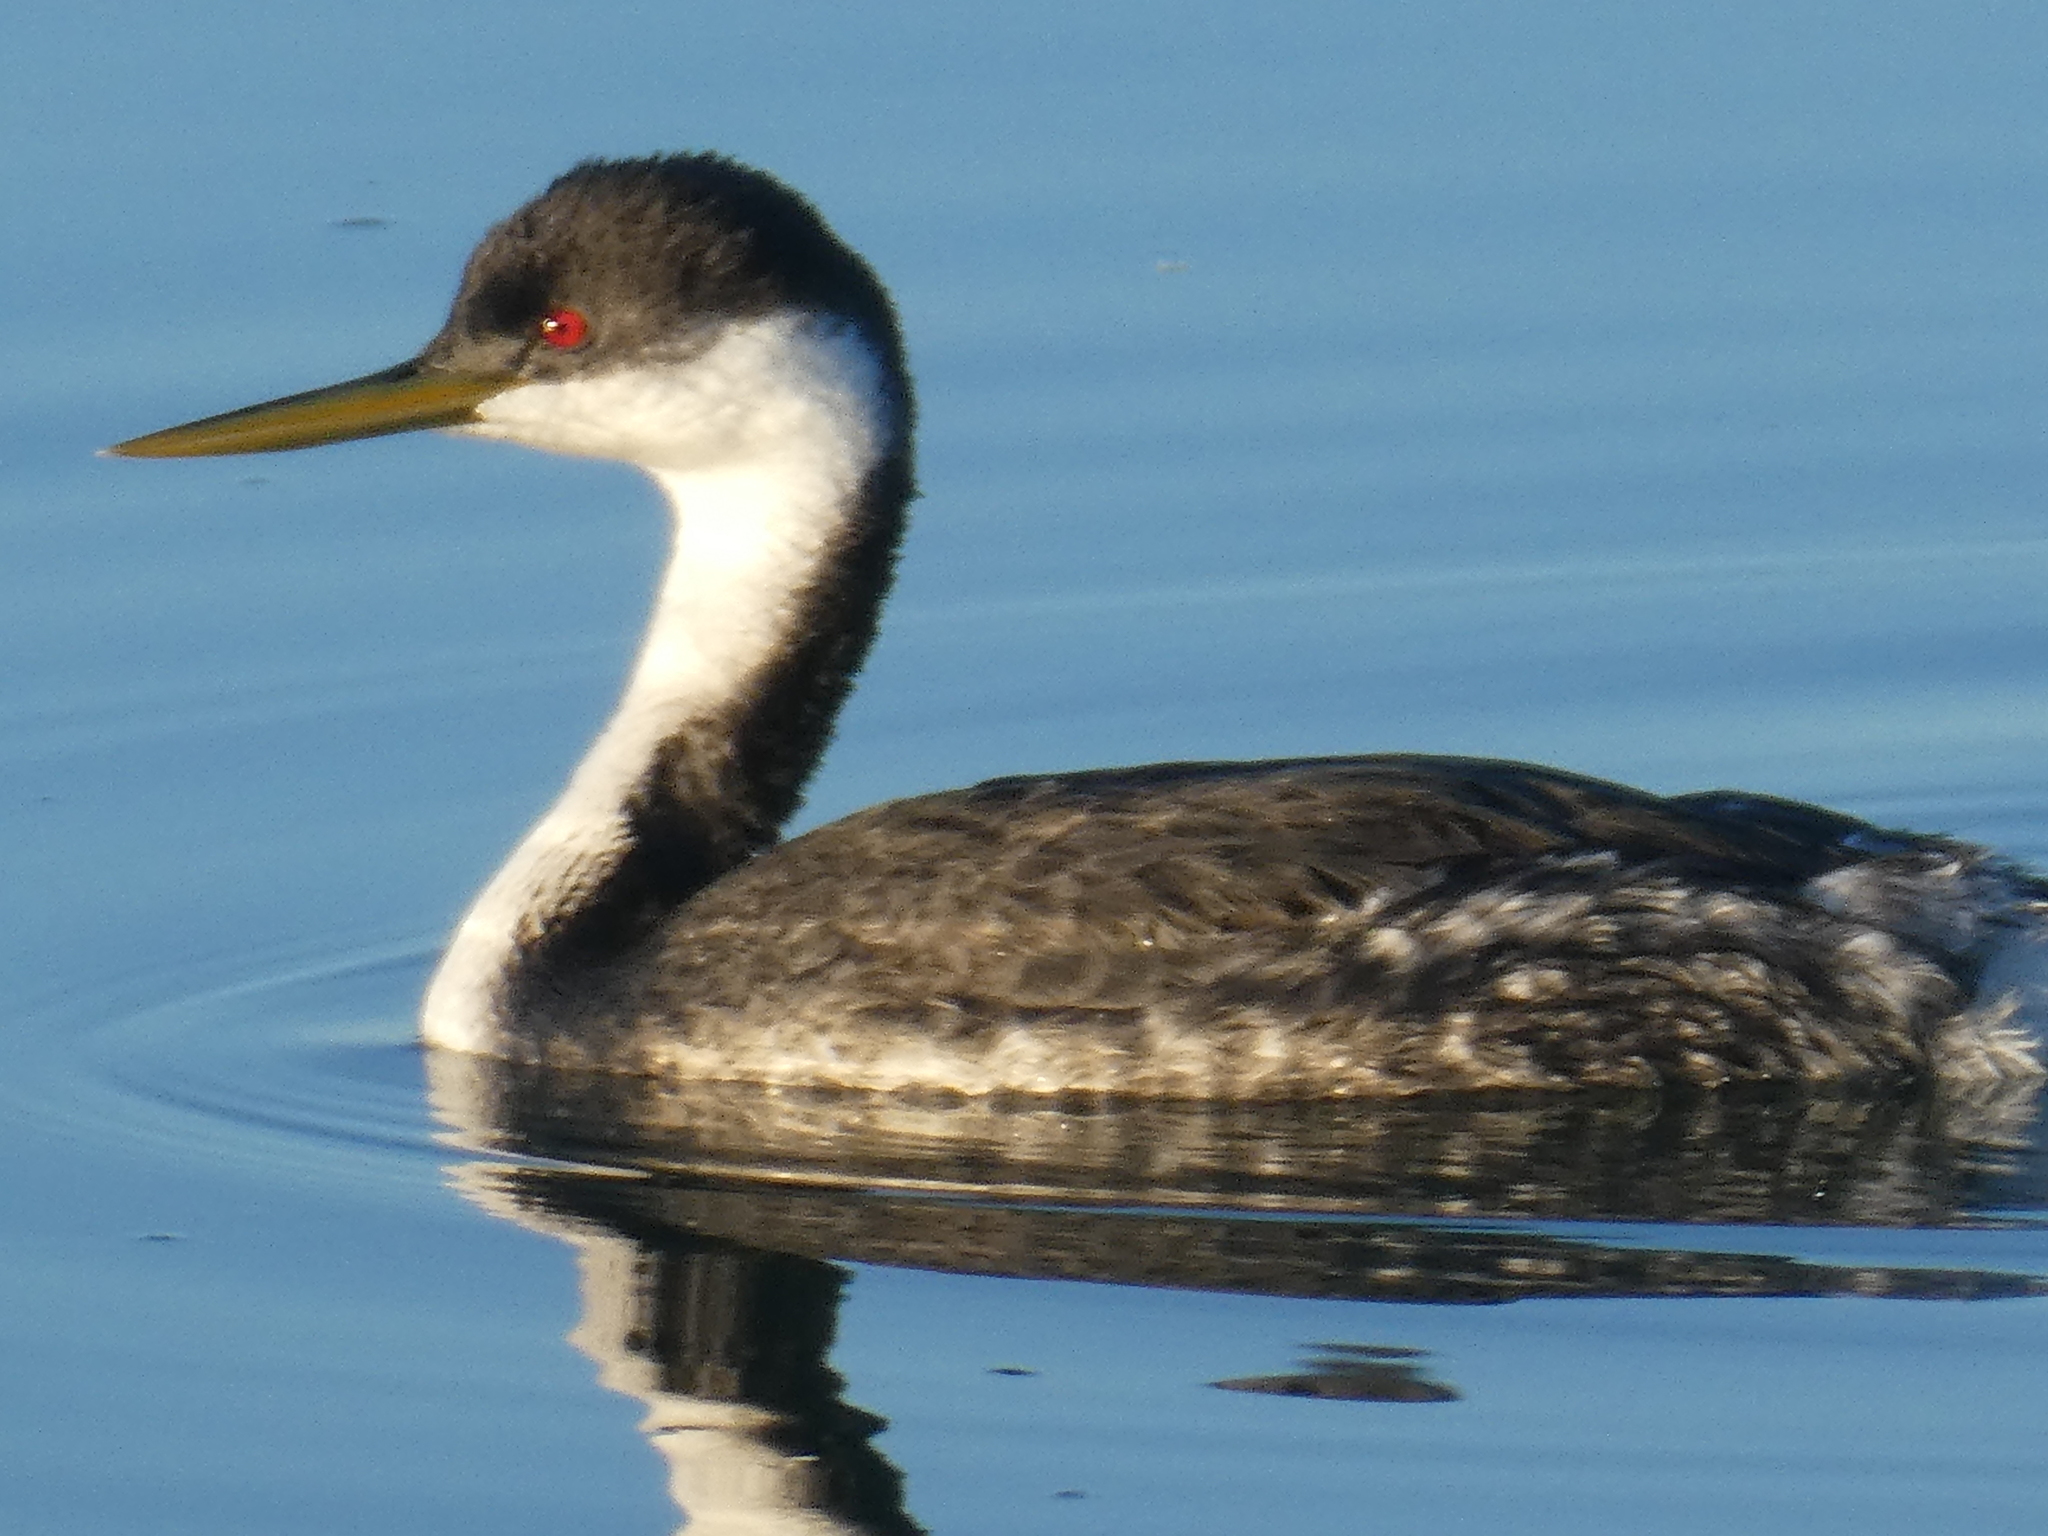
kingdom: Animalia
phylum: Chordata
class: Aves
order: Podicipediformes
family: Podicipedidae
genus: Aechmophorus
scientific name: Aechmophorus occidentalis
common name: Western grebe
